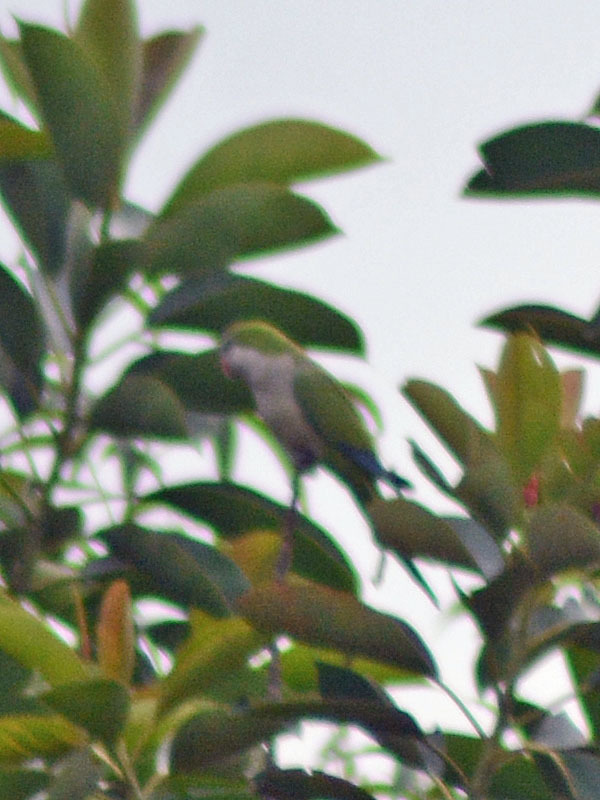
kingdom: Animalia
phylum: Chordata
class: Aves
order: Psittaciformes
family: Psittacidae
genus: Myiopsitta
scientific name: Myiopsitta monachus
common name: Monk parakeet
